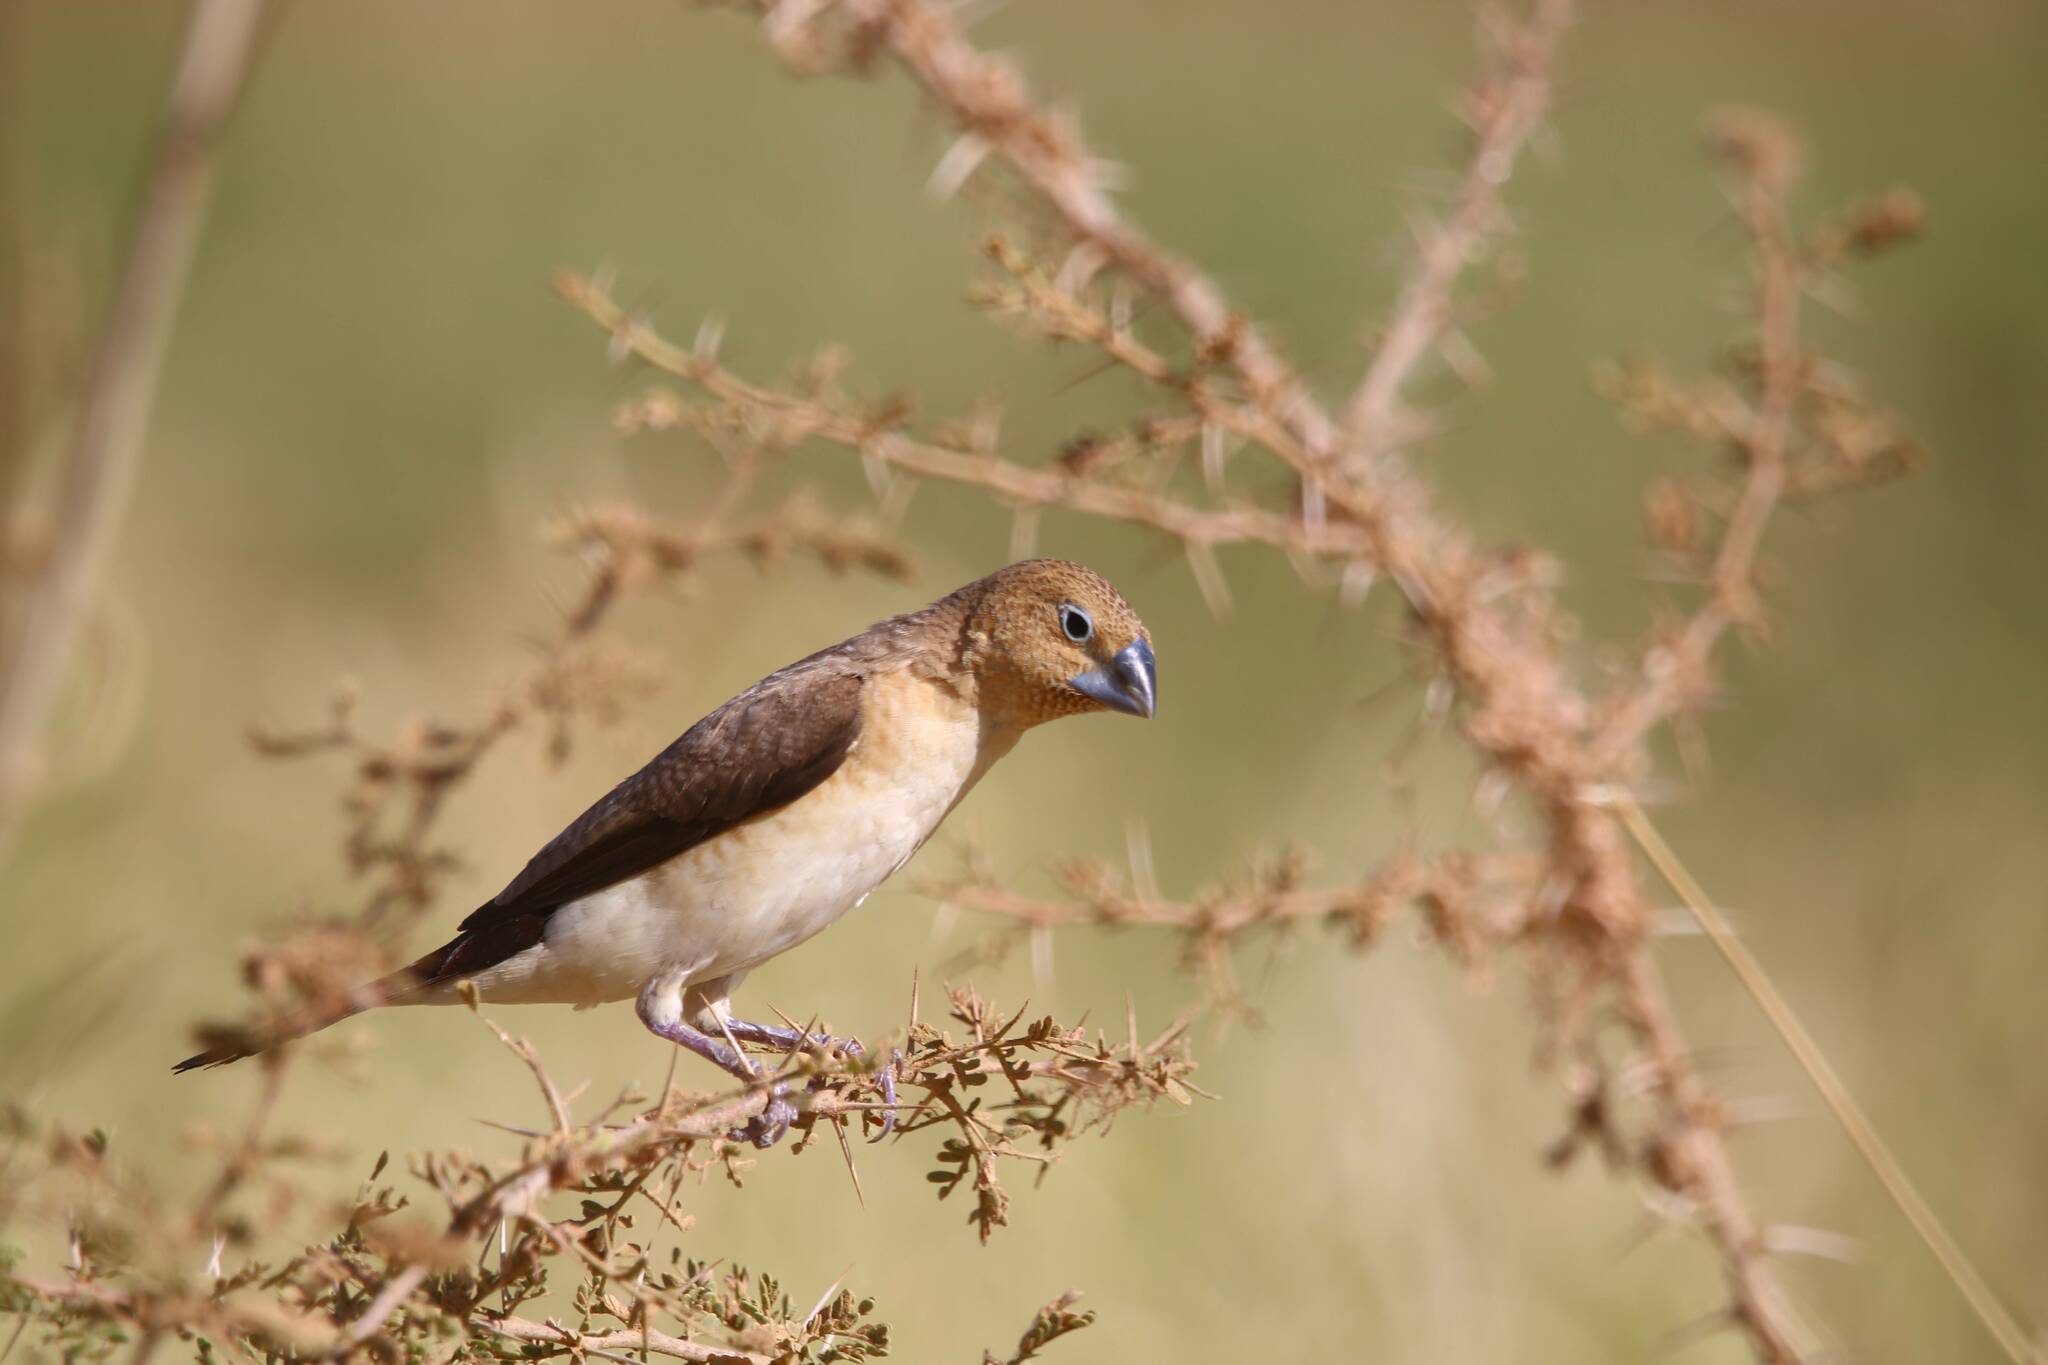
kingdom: Animalia
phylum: Chordata
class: Aves
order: Passeriformes
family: Estrildidae
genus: Euodice
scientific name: Euodice cantans
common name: African silverbill
